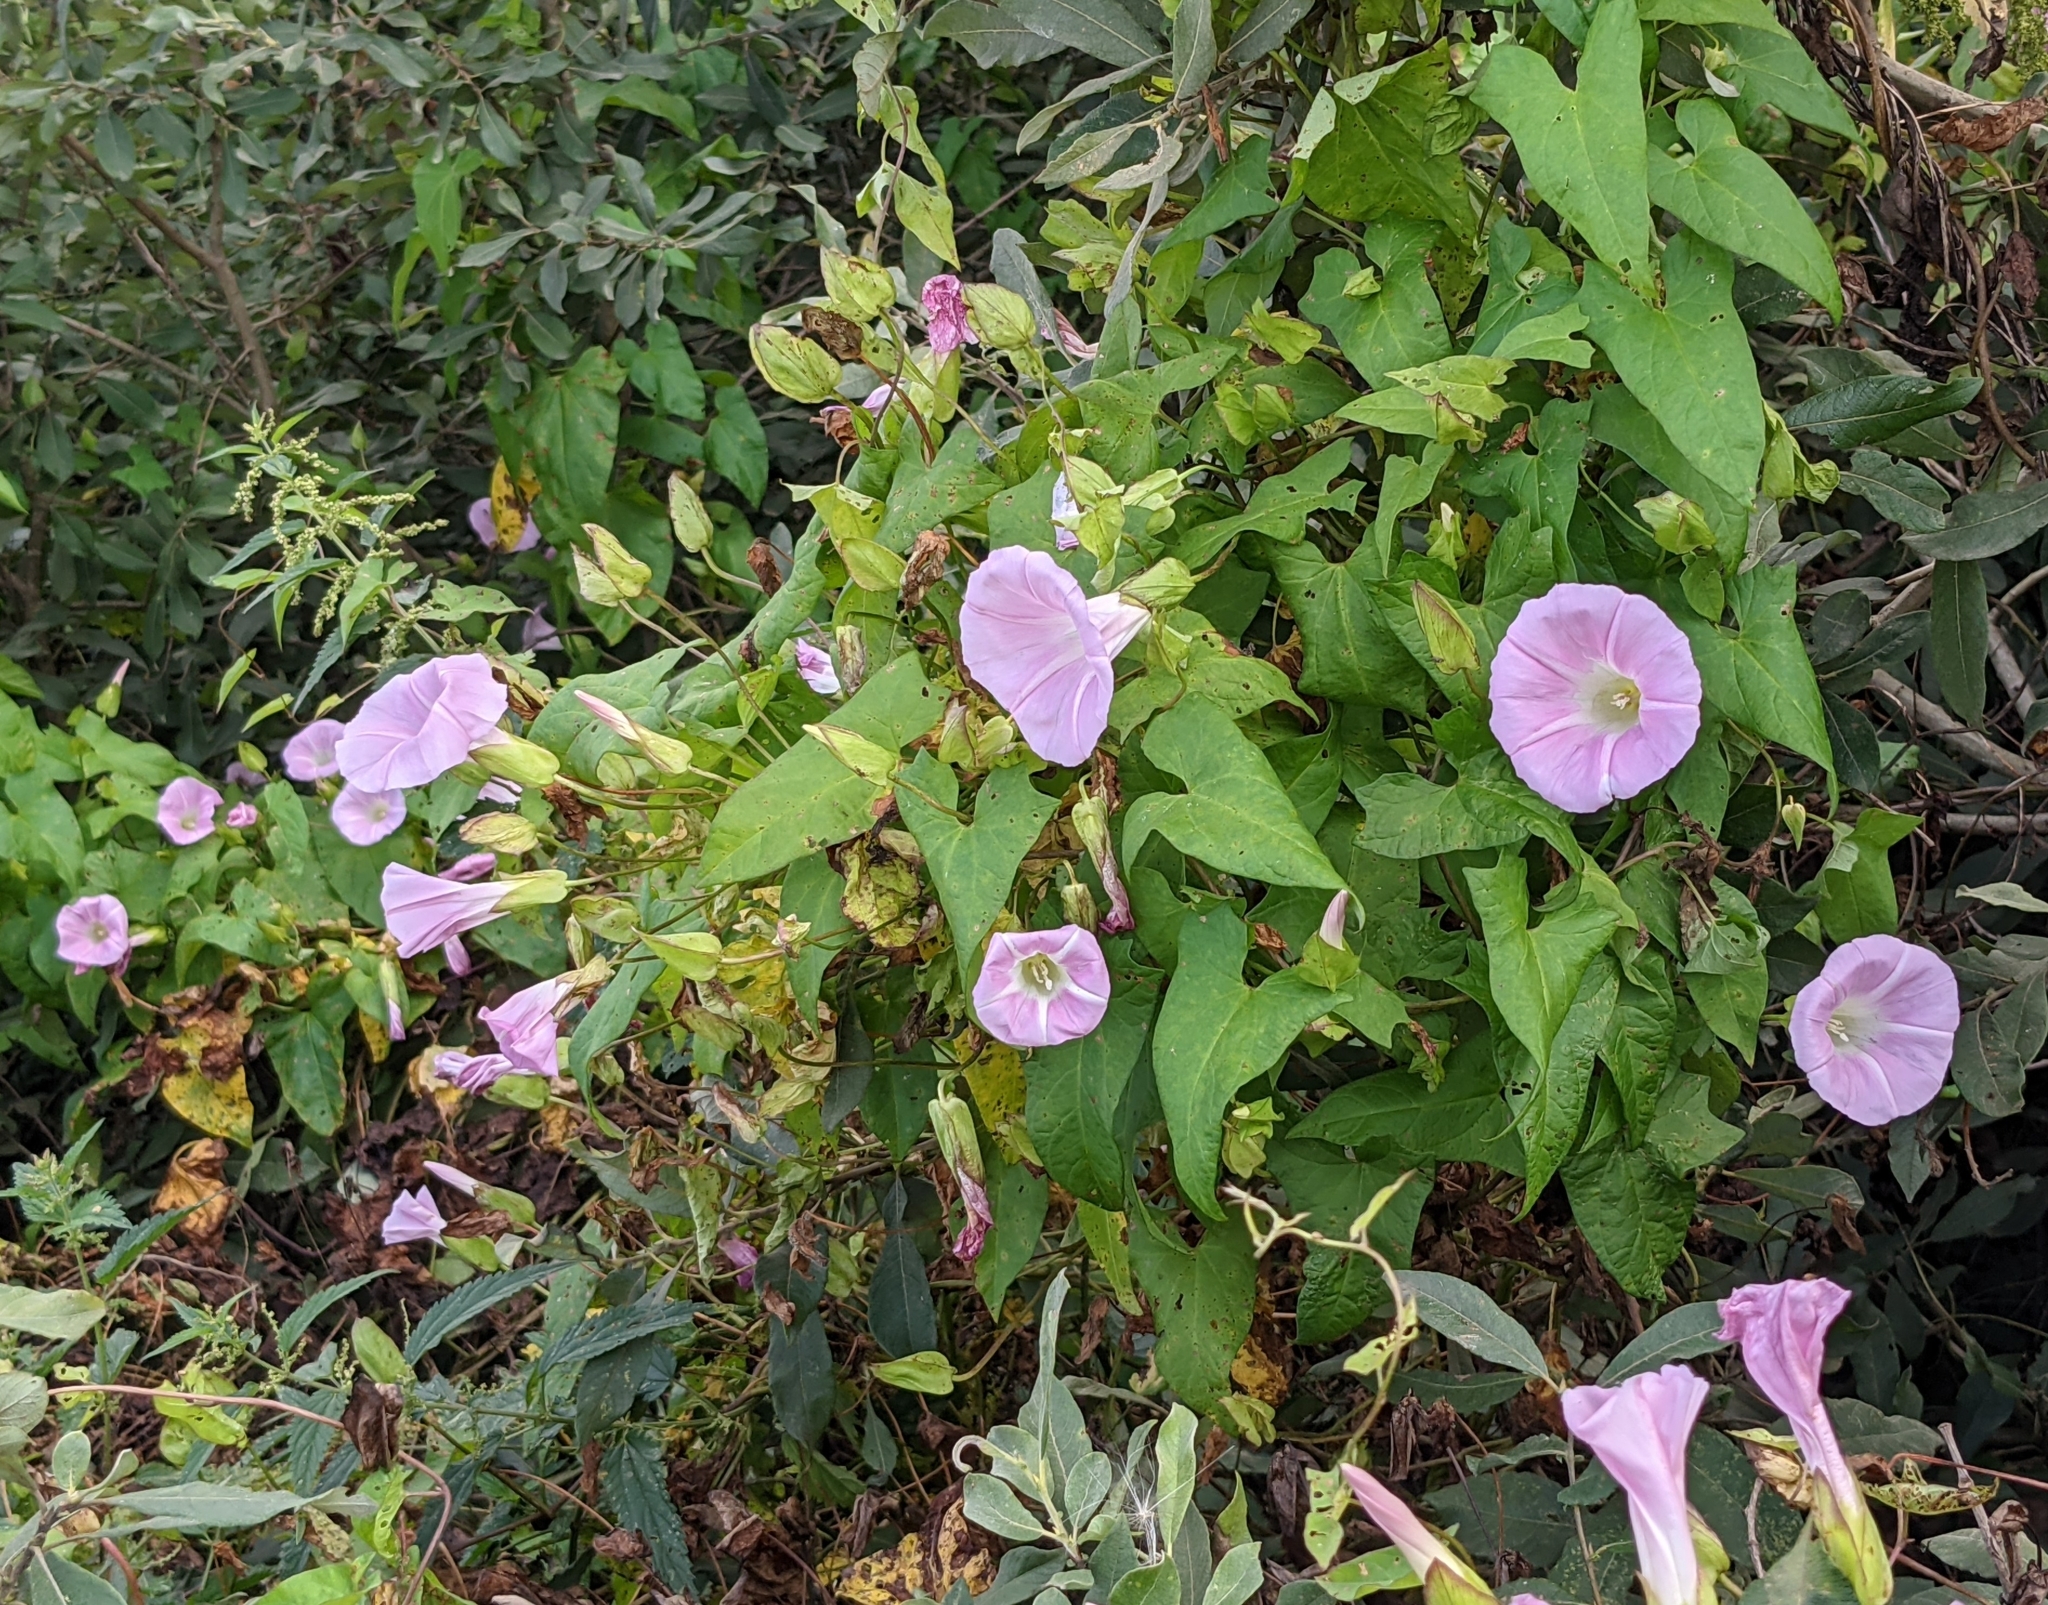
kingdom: Plantae
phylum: Tracheophyta
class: Magnoliopsida
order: Solanales
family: Convolvulaceae
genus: Calystegia
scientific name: Calystegia sepium
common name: Hedge bindweed
